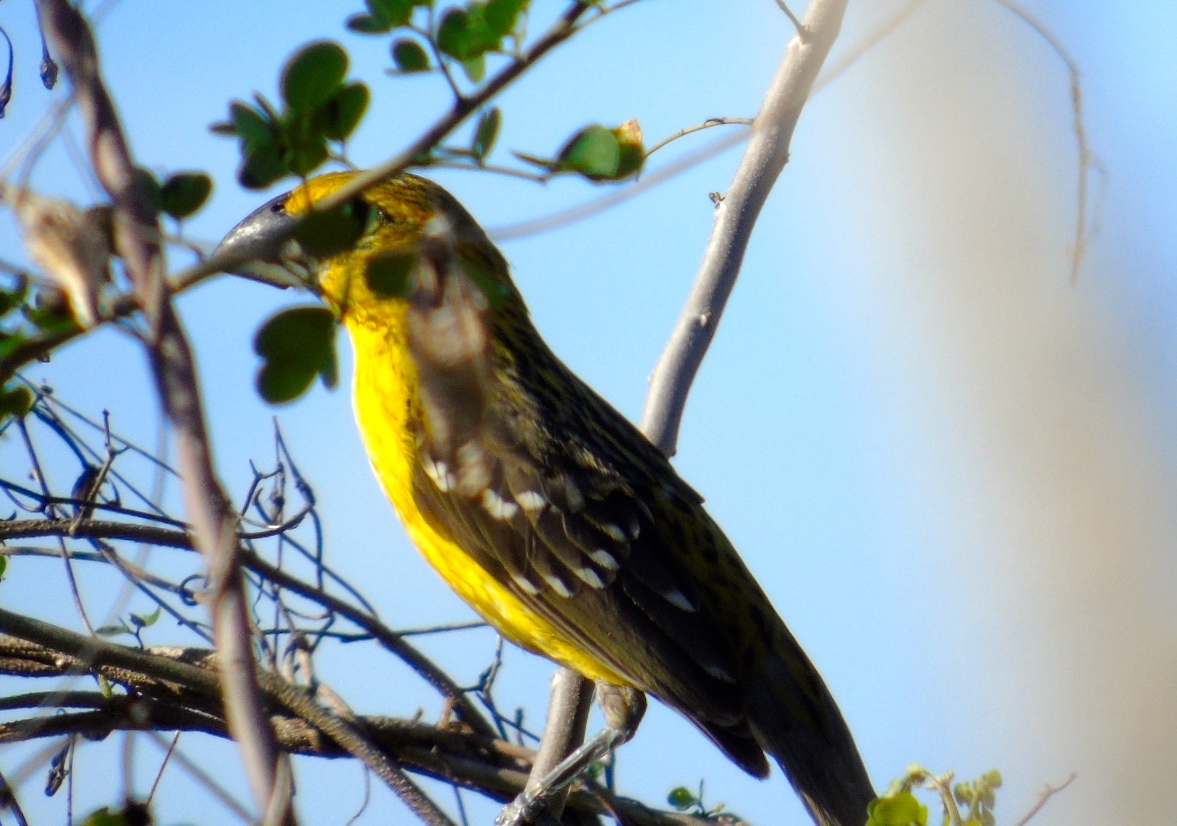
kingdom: Animalia
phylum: Chordata
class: Aves
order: Passeriformes
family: Cardinalidae
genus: Pheucticus
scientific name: Pheucticus chrysopeplus
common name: Yellow grosbeak
